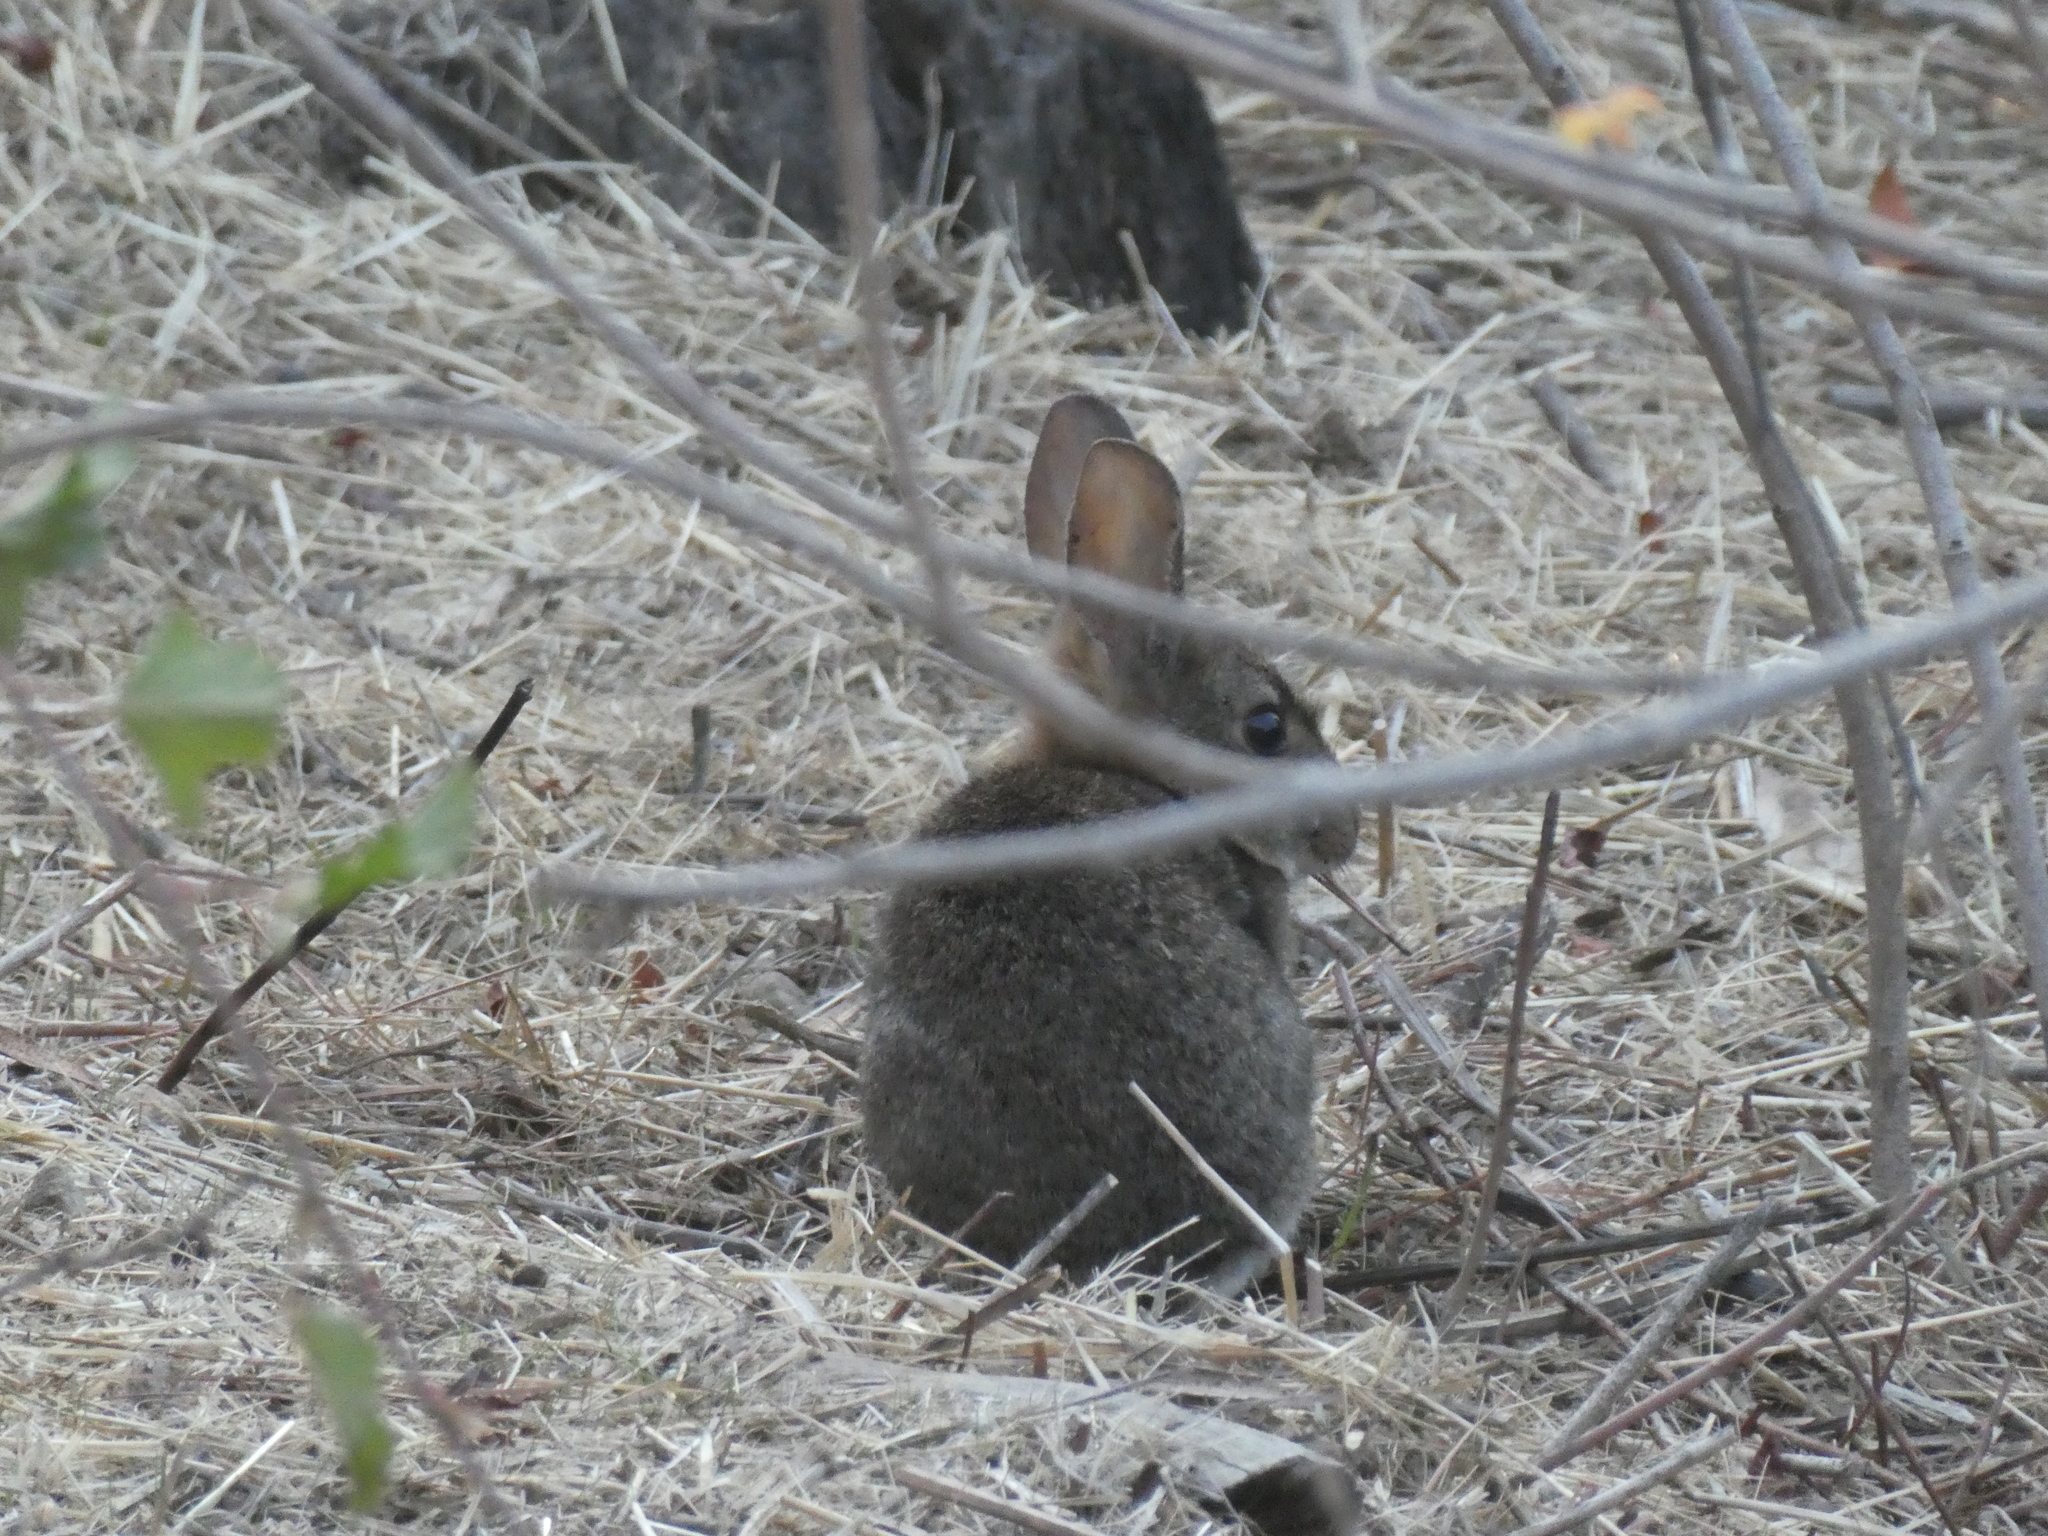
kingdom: Animalia
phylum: Chordata
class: Mammalia
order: Lagomorpha
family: Leporidae
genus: Sylvilagus
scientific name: Sylvilagus bachmani
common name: Brush rabbit
